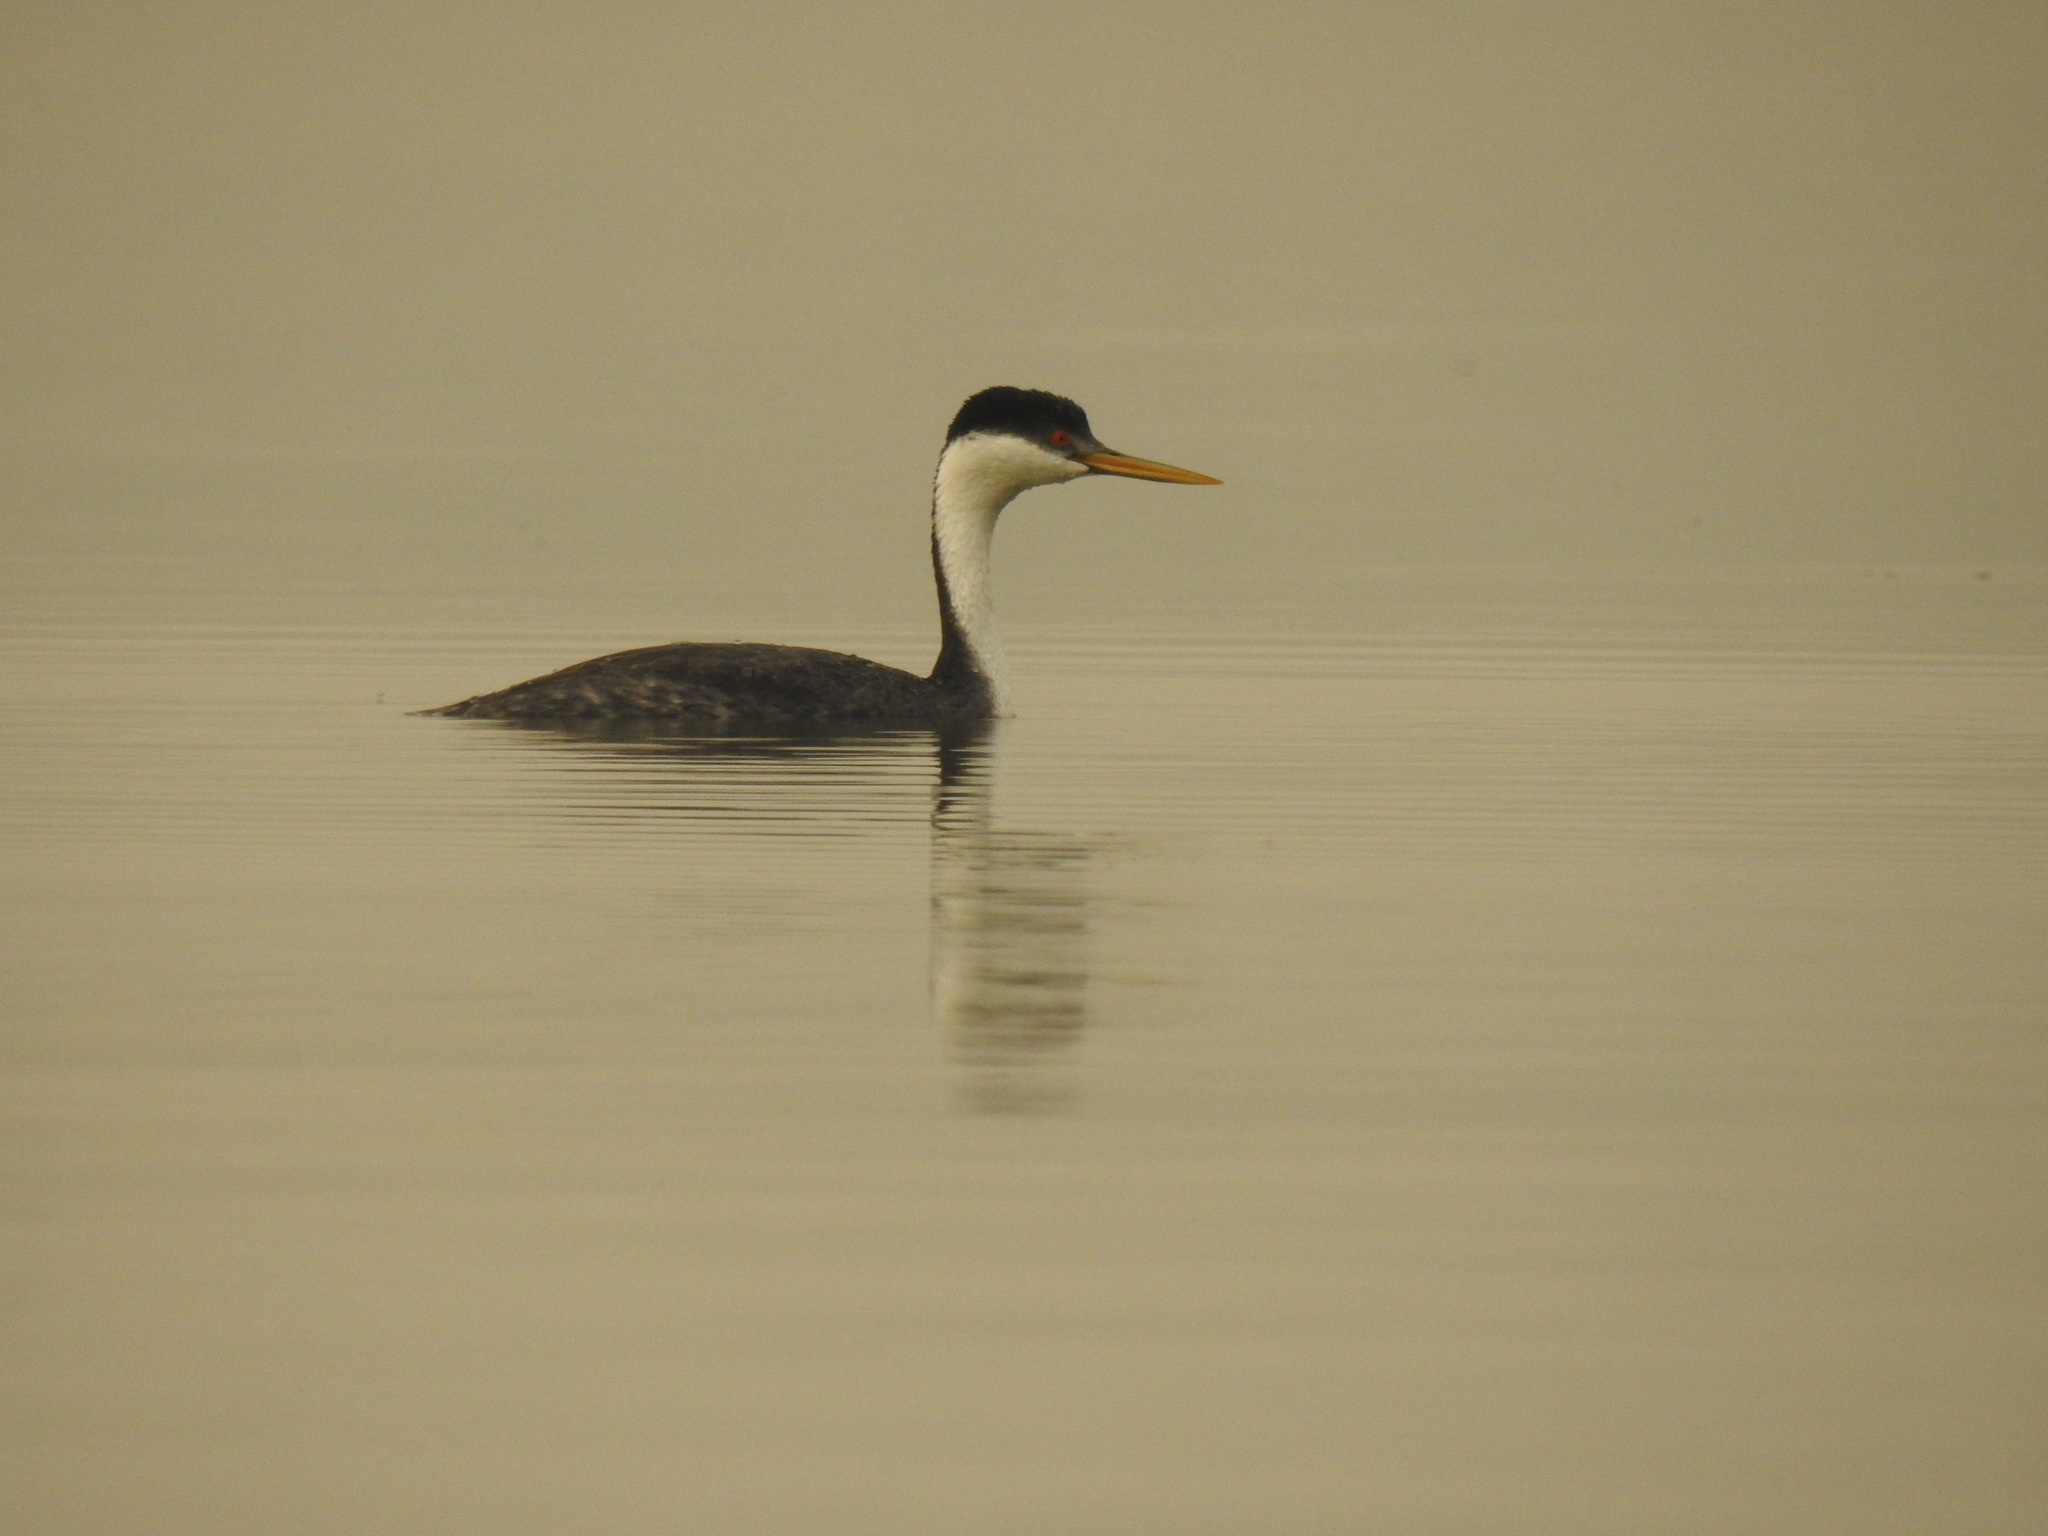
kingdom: Animalia
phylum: Chordata
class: Aves
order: Podicipediformes
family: Podicipedidae
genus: Aechmophorus
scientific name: Aechmophorus occidentalis
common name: Western grebe
